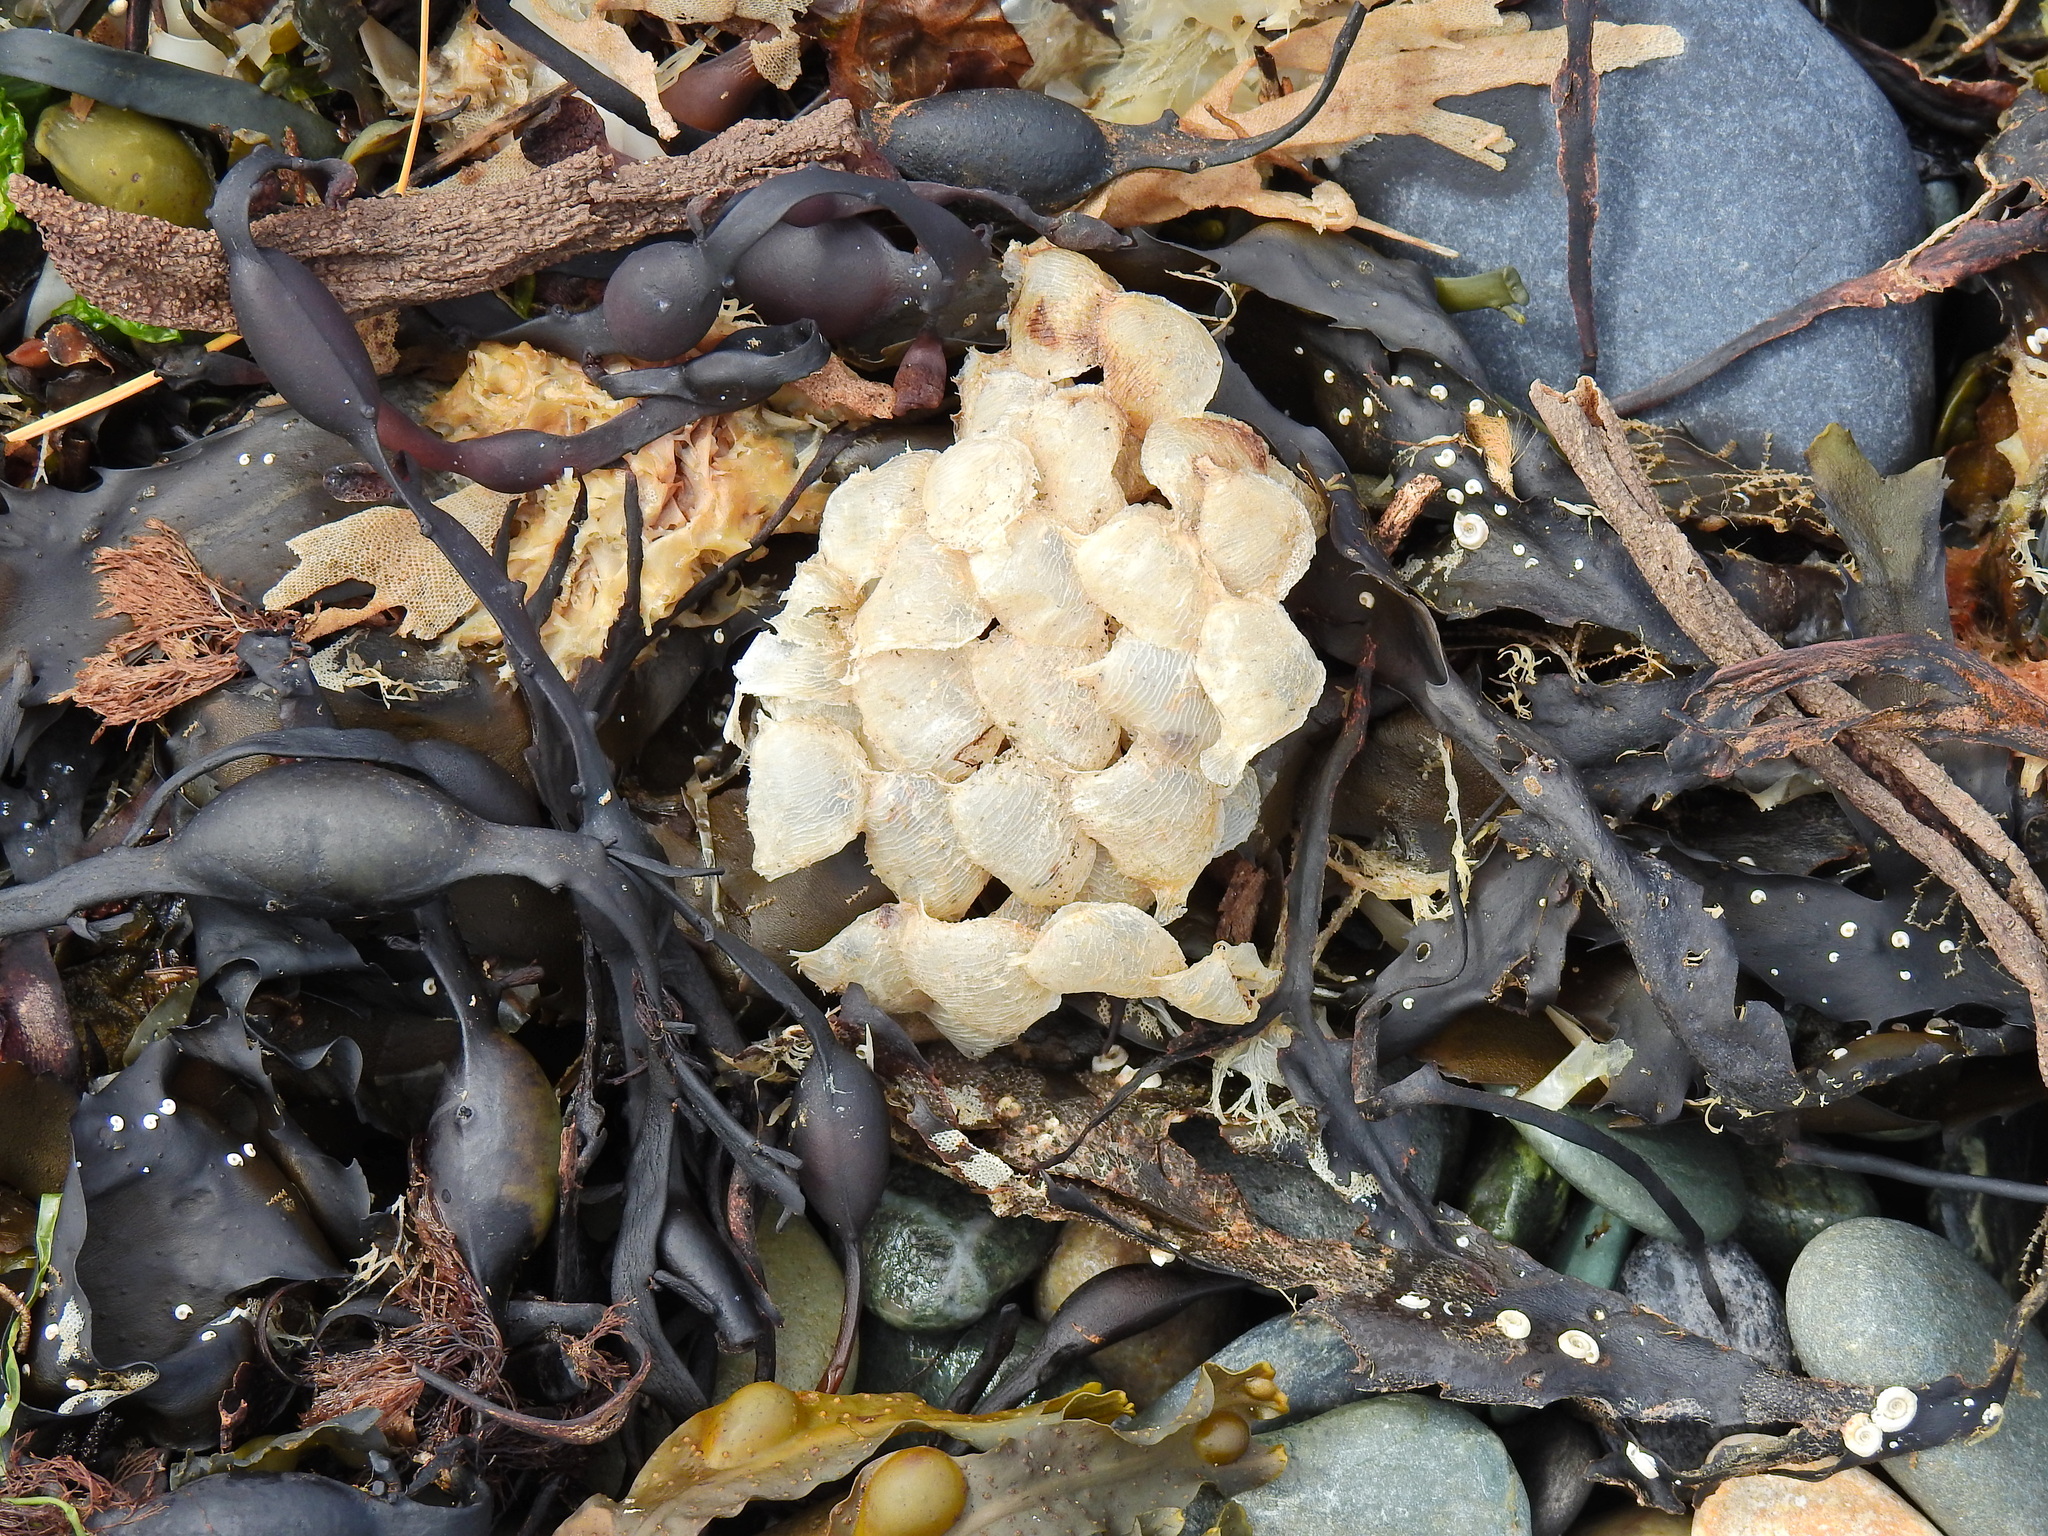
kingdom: Animalia
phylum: Mollusca
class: Gastropoda
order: Neogastropoda
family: Buccinidae
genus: Buccinum
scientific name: Buccinum undatum
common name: Common whelk
